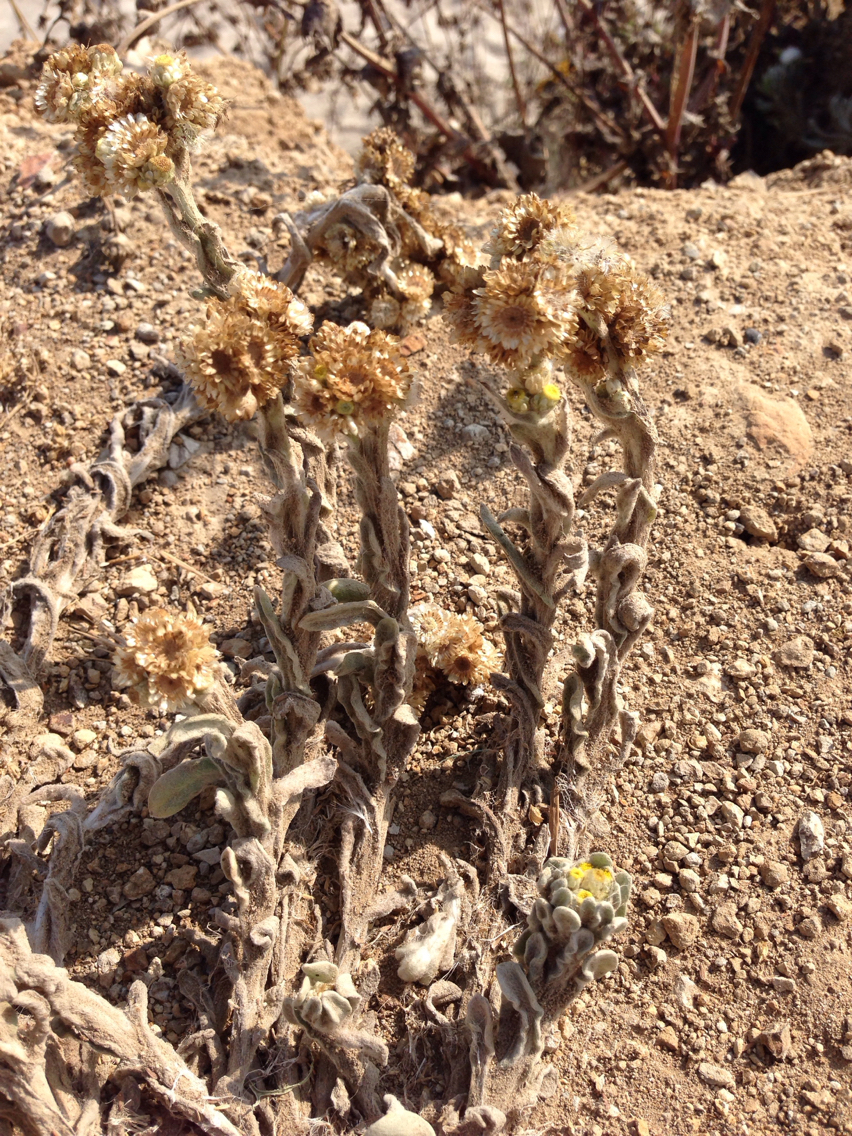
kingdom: Plantae
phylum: Tracheophyta
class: Magnoliopsida
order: Asterales
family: Asteraceae
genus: Pseudognaphalium
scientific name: Pseudognaphalium stramineum
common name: Cotton-batting-plant
